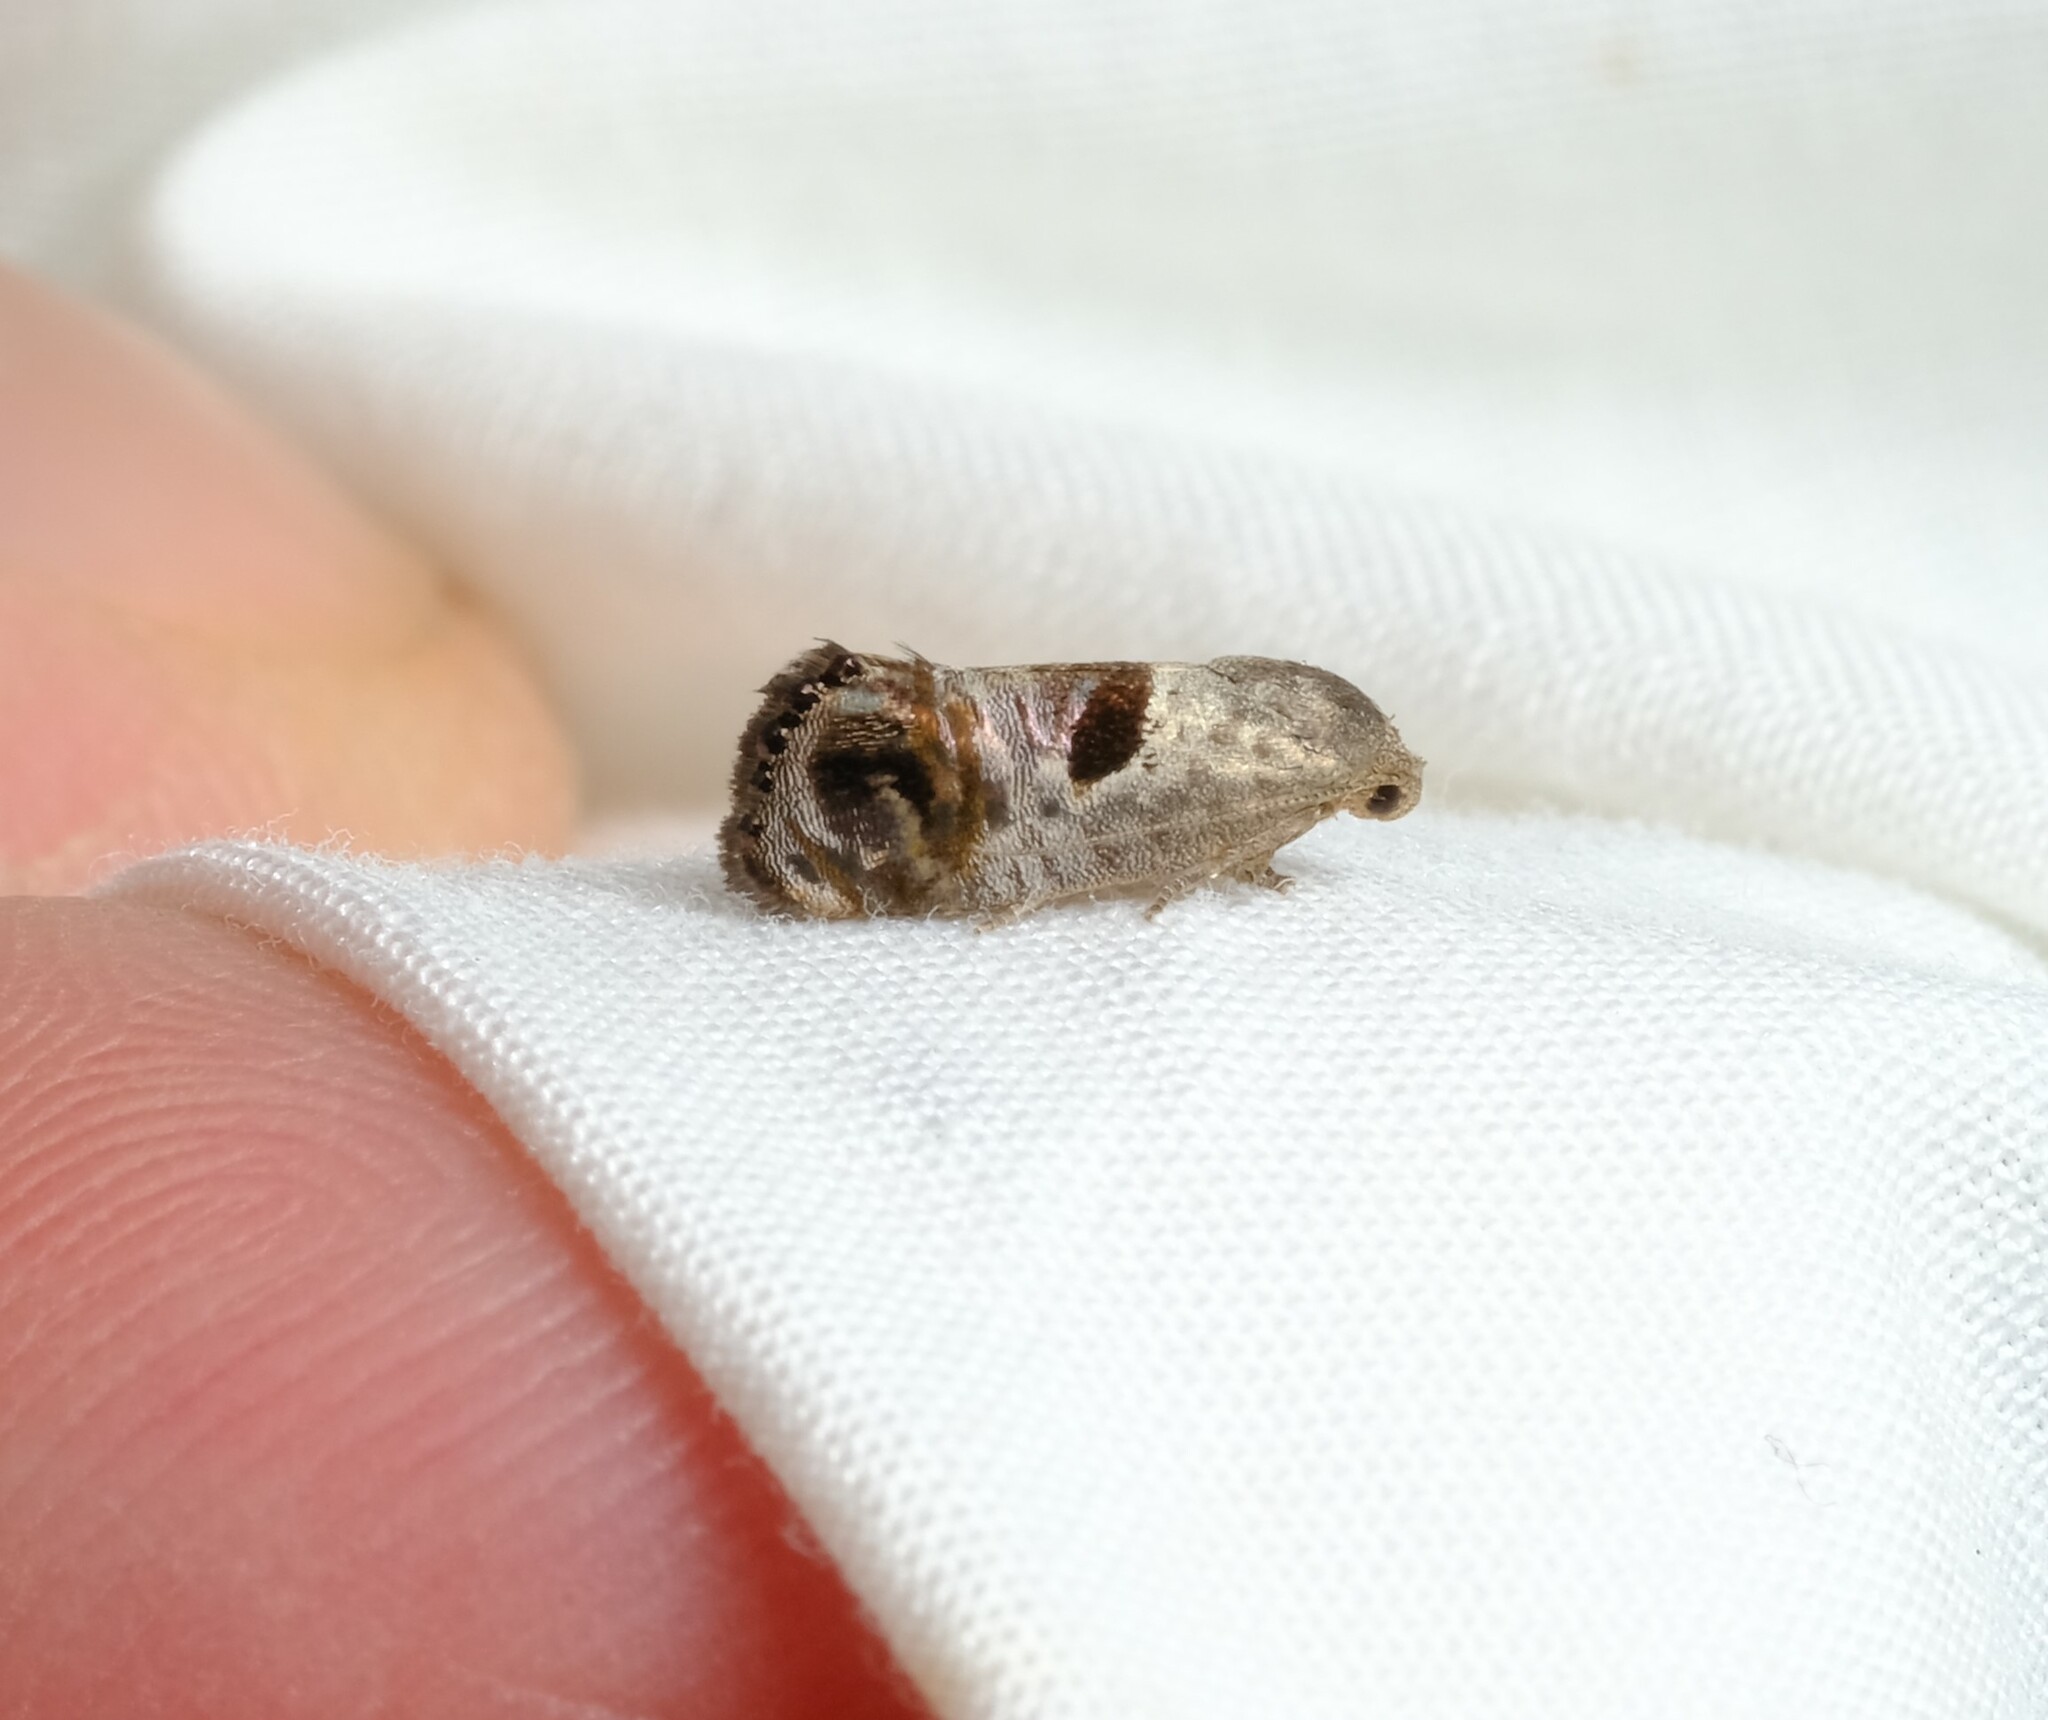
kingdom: Animalia
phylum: Arthropoda
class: Insecta
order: Lepidoptera
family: Depressariidae
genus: Eupselia
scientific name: Eupselia beatella
